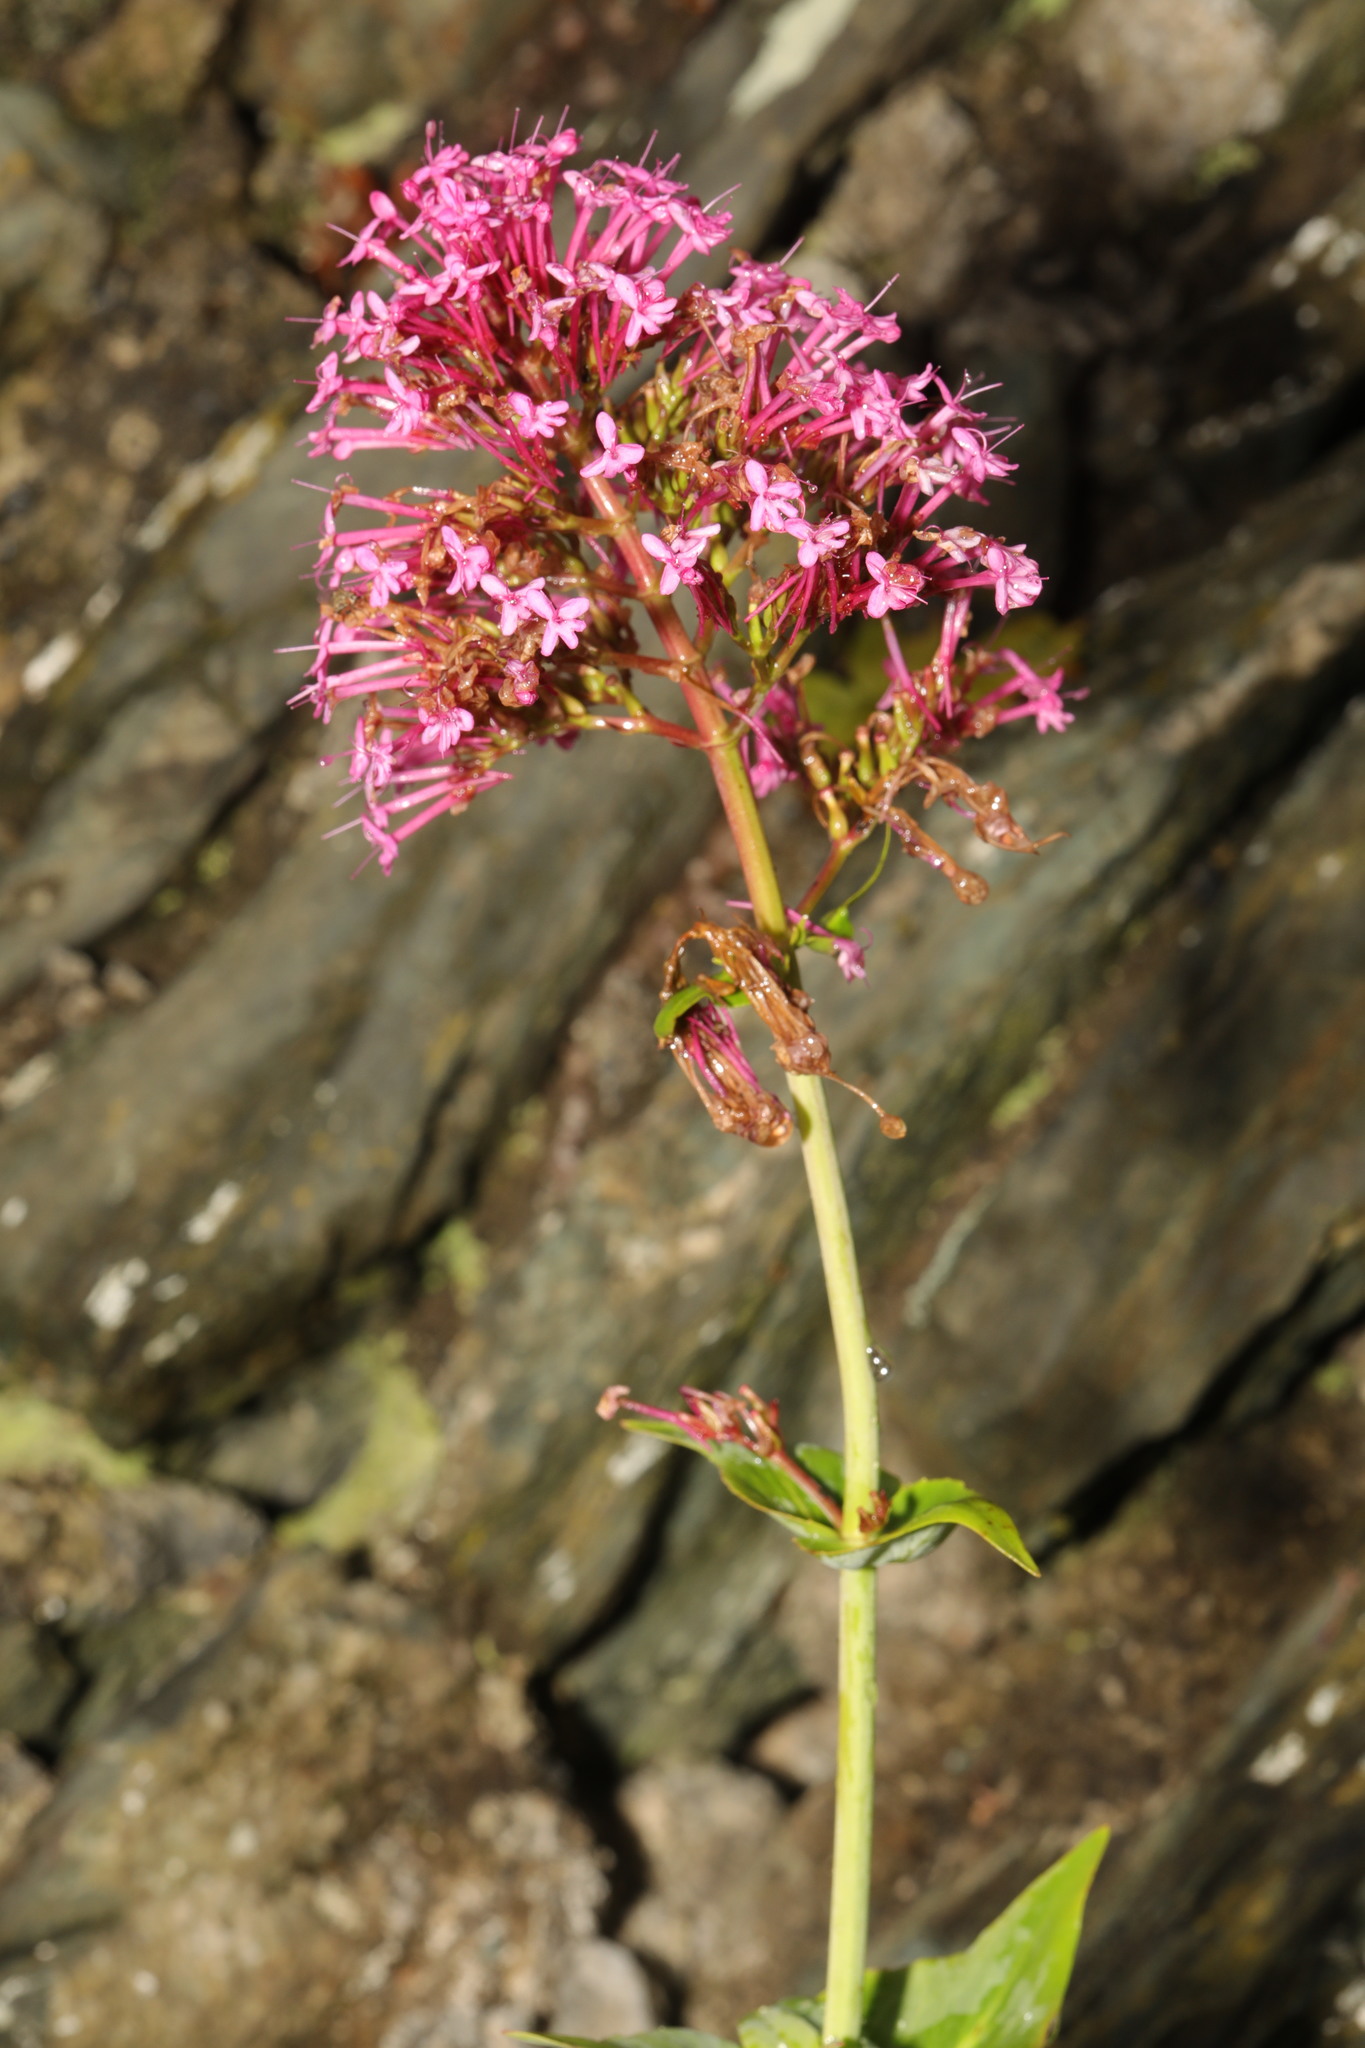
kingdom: Plantae
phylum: Tracheophyta
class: Magnoliopsida
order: Dipsacales
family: Caprifoliaceae
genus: Centranthus
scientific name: Centranthus ruber
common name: Red valerian
